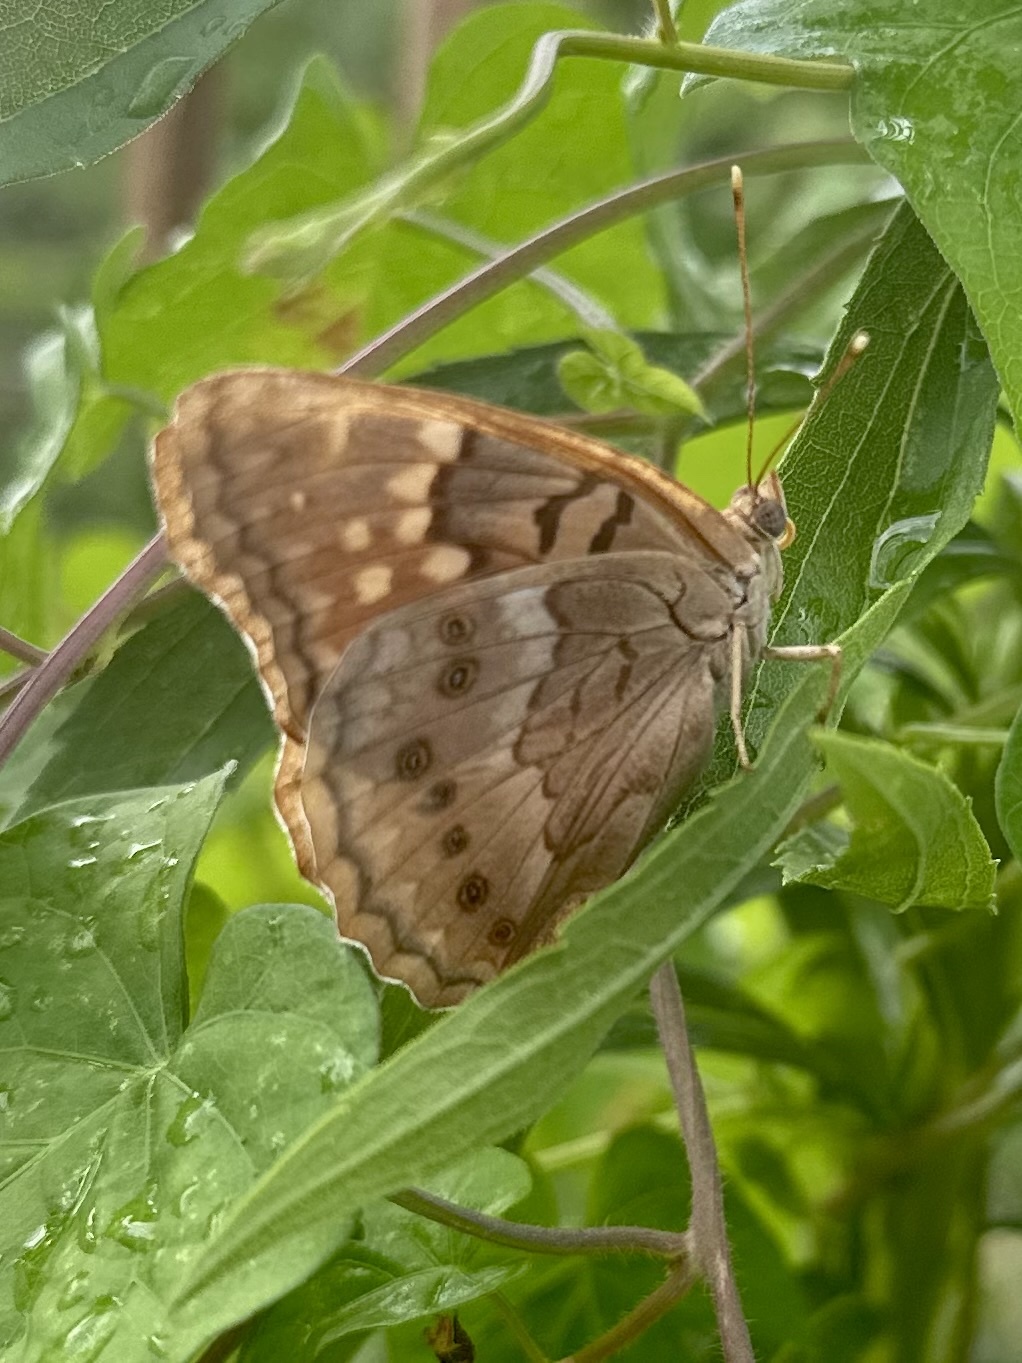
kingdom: Animalia
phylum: Arthropoda
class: Insecta
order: Lepidoptera
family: Nymphalidae
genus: Asterocampa
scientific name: Asterocampa clyton
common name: Tawny emperor
